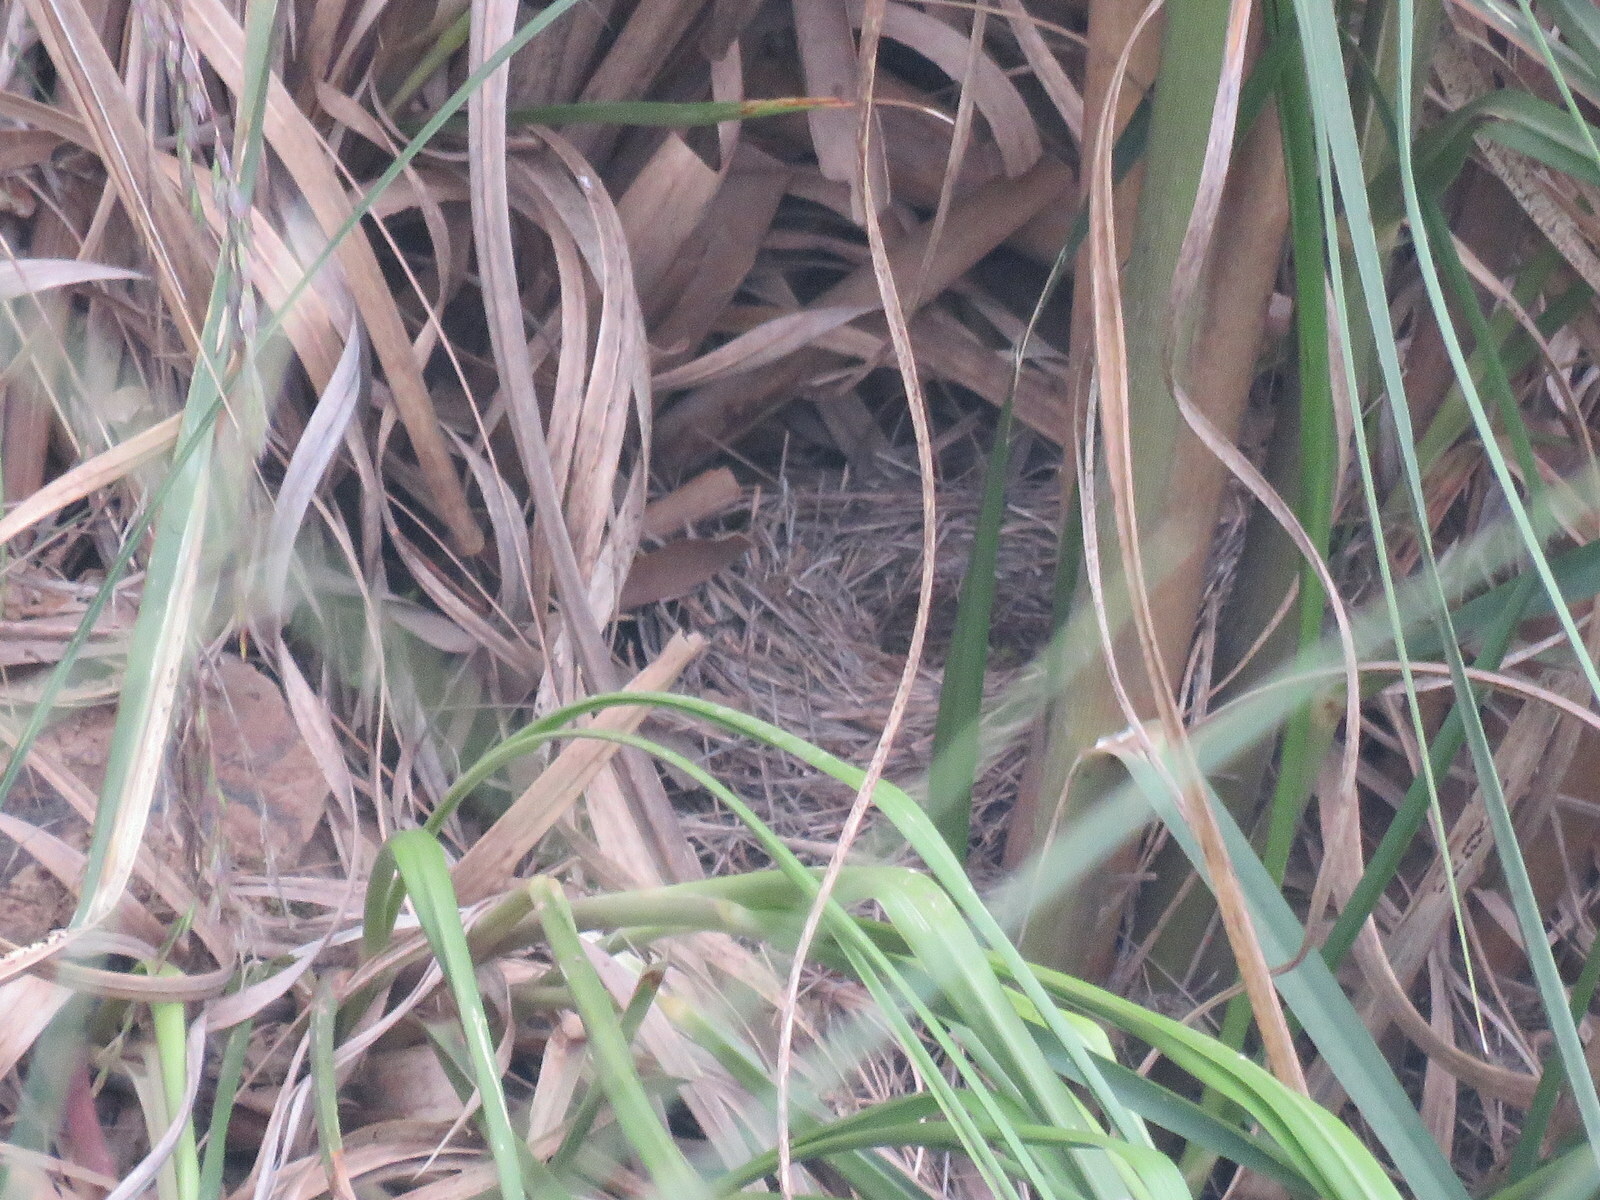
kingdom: Animalia
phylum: Chordata
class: Aves
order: Passeriformes
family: Thraupidae
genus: Geospizopsis
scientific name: Geospizopsis plebejus
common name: Ash-breasted sierra-finch
